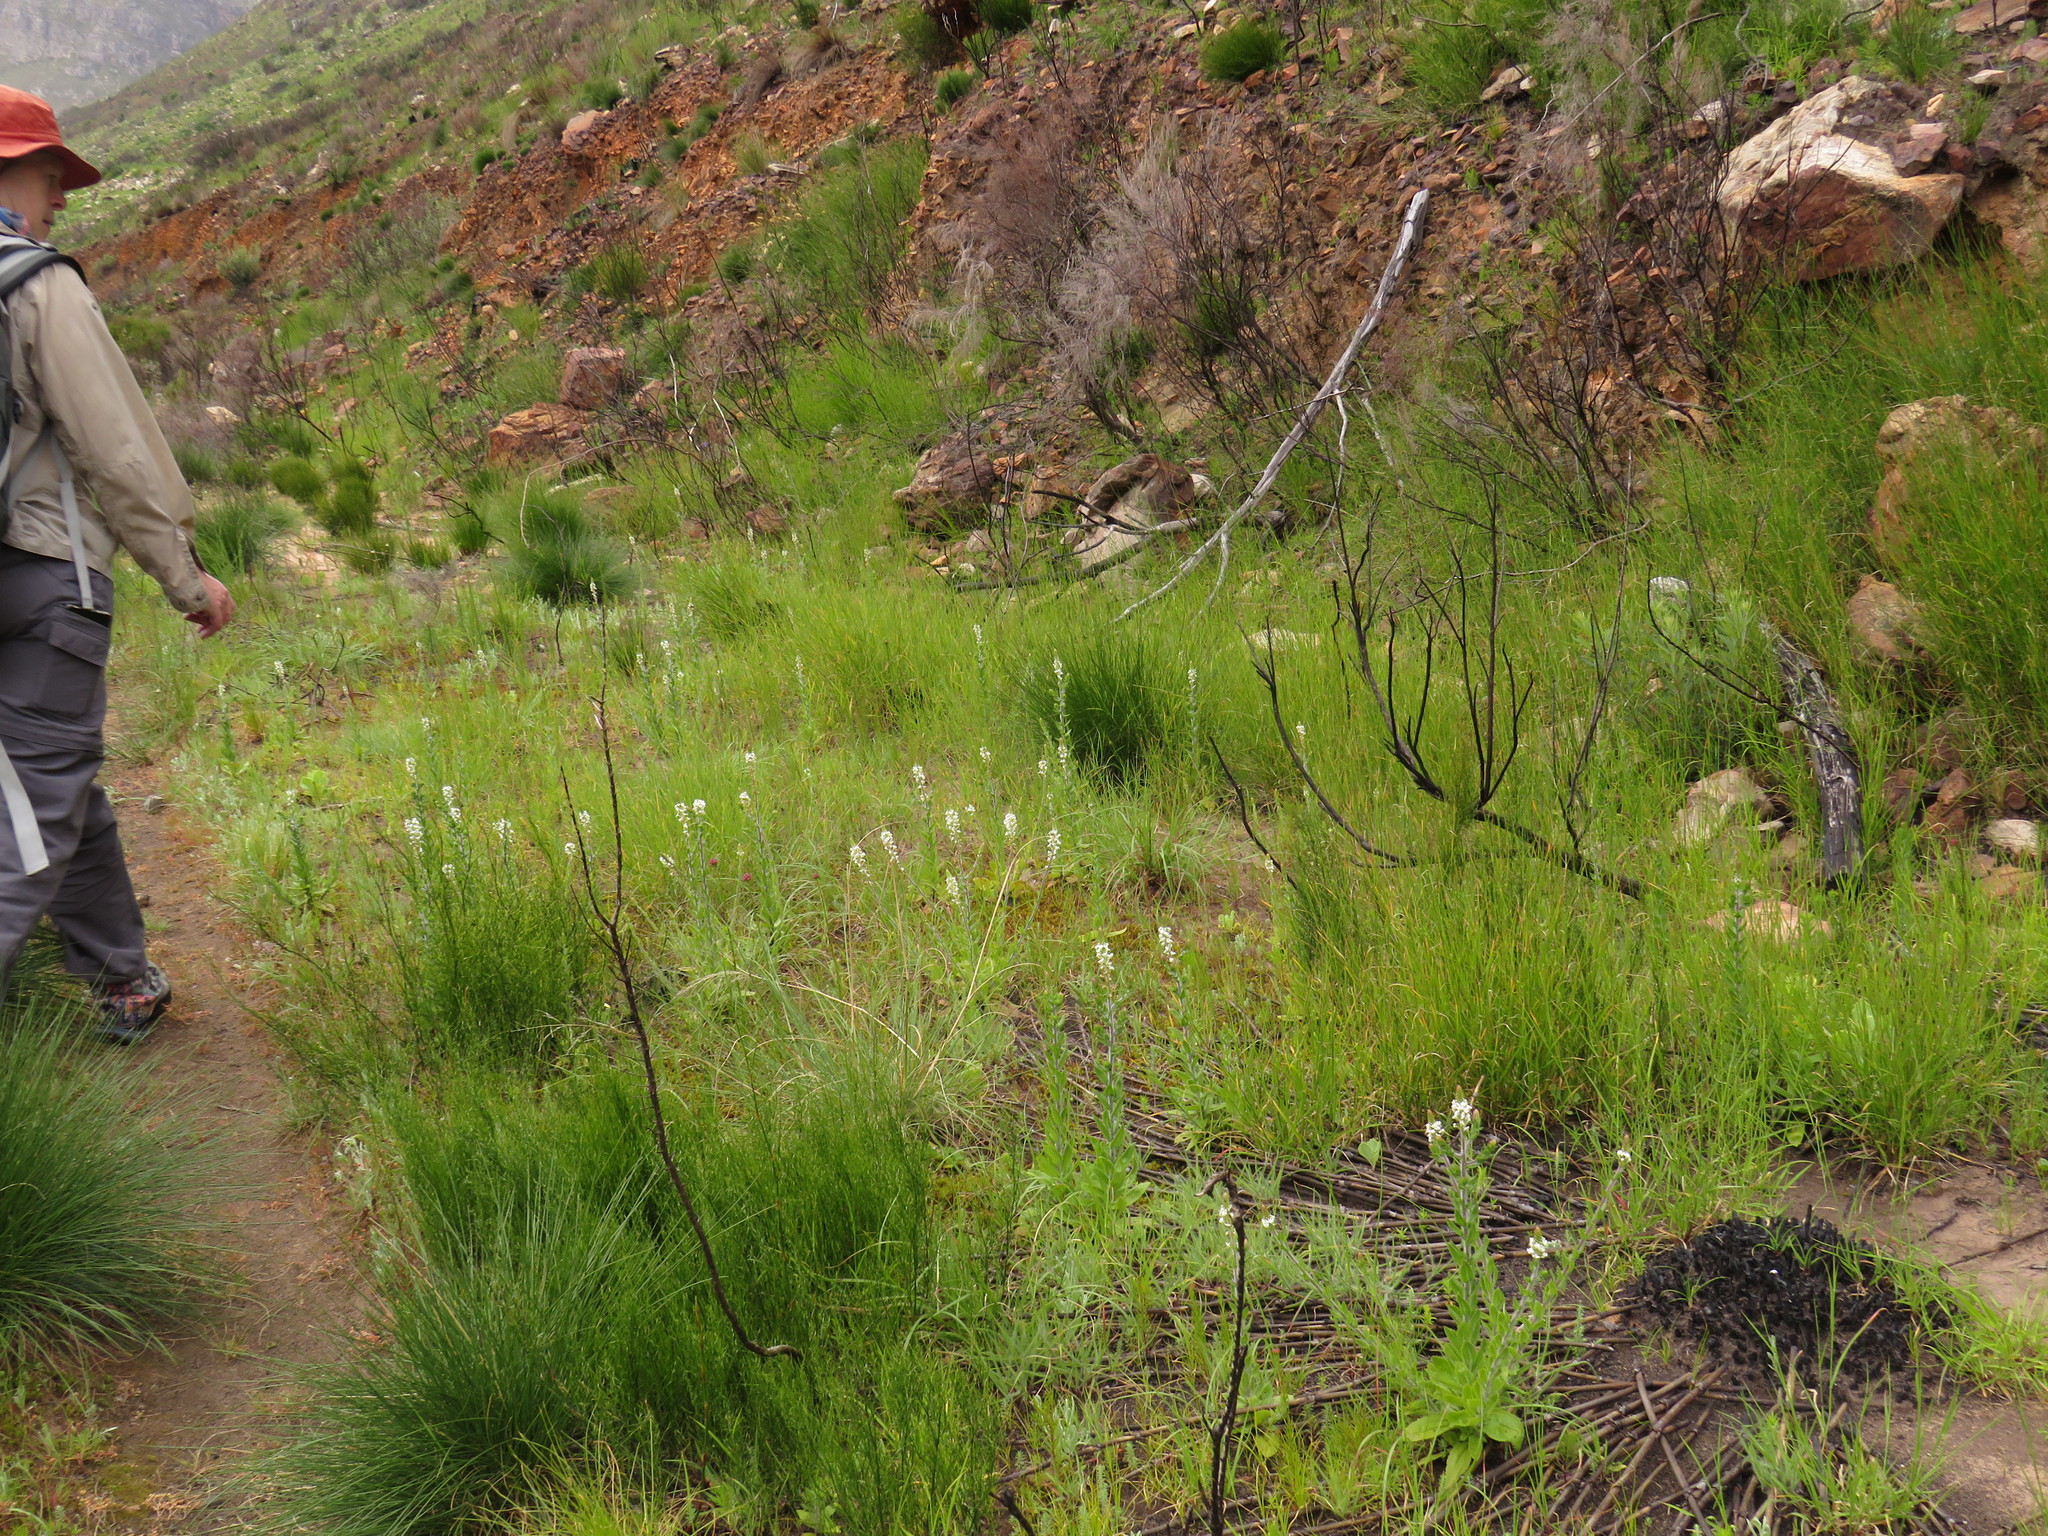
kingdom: Plantae
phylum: Tracheophyta
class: Magnoliopsida
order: Lamiales
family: Scrophulariaceae
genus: Hebenstretia
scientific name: Hebenstretia lanceolata
